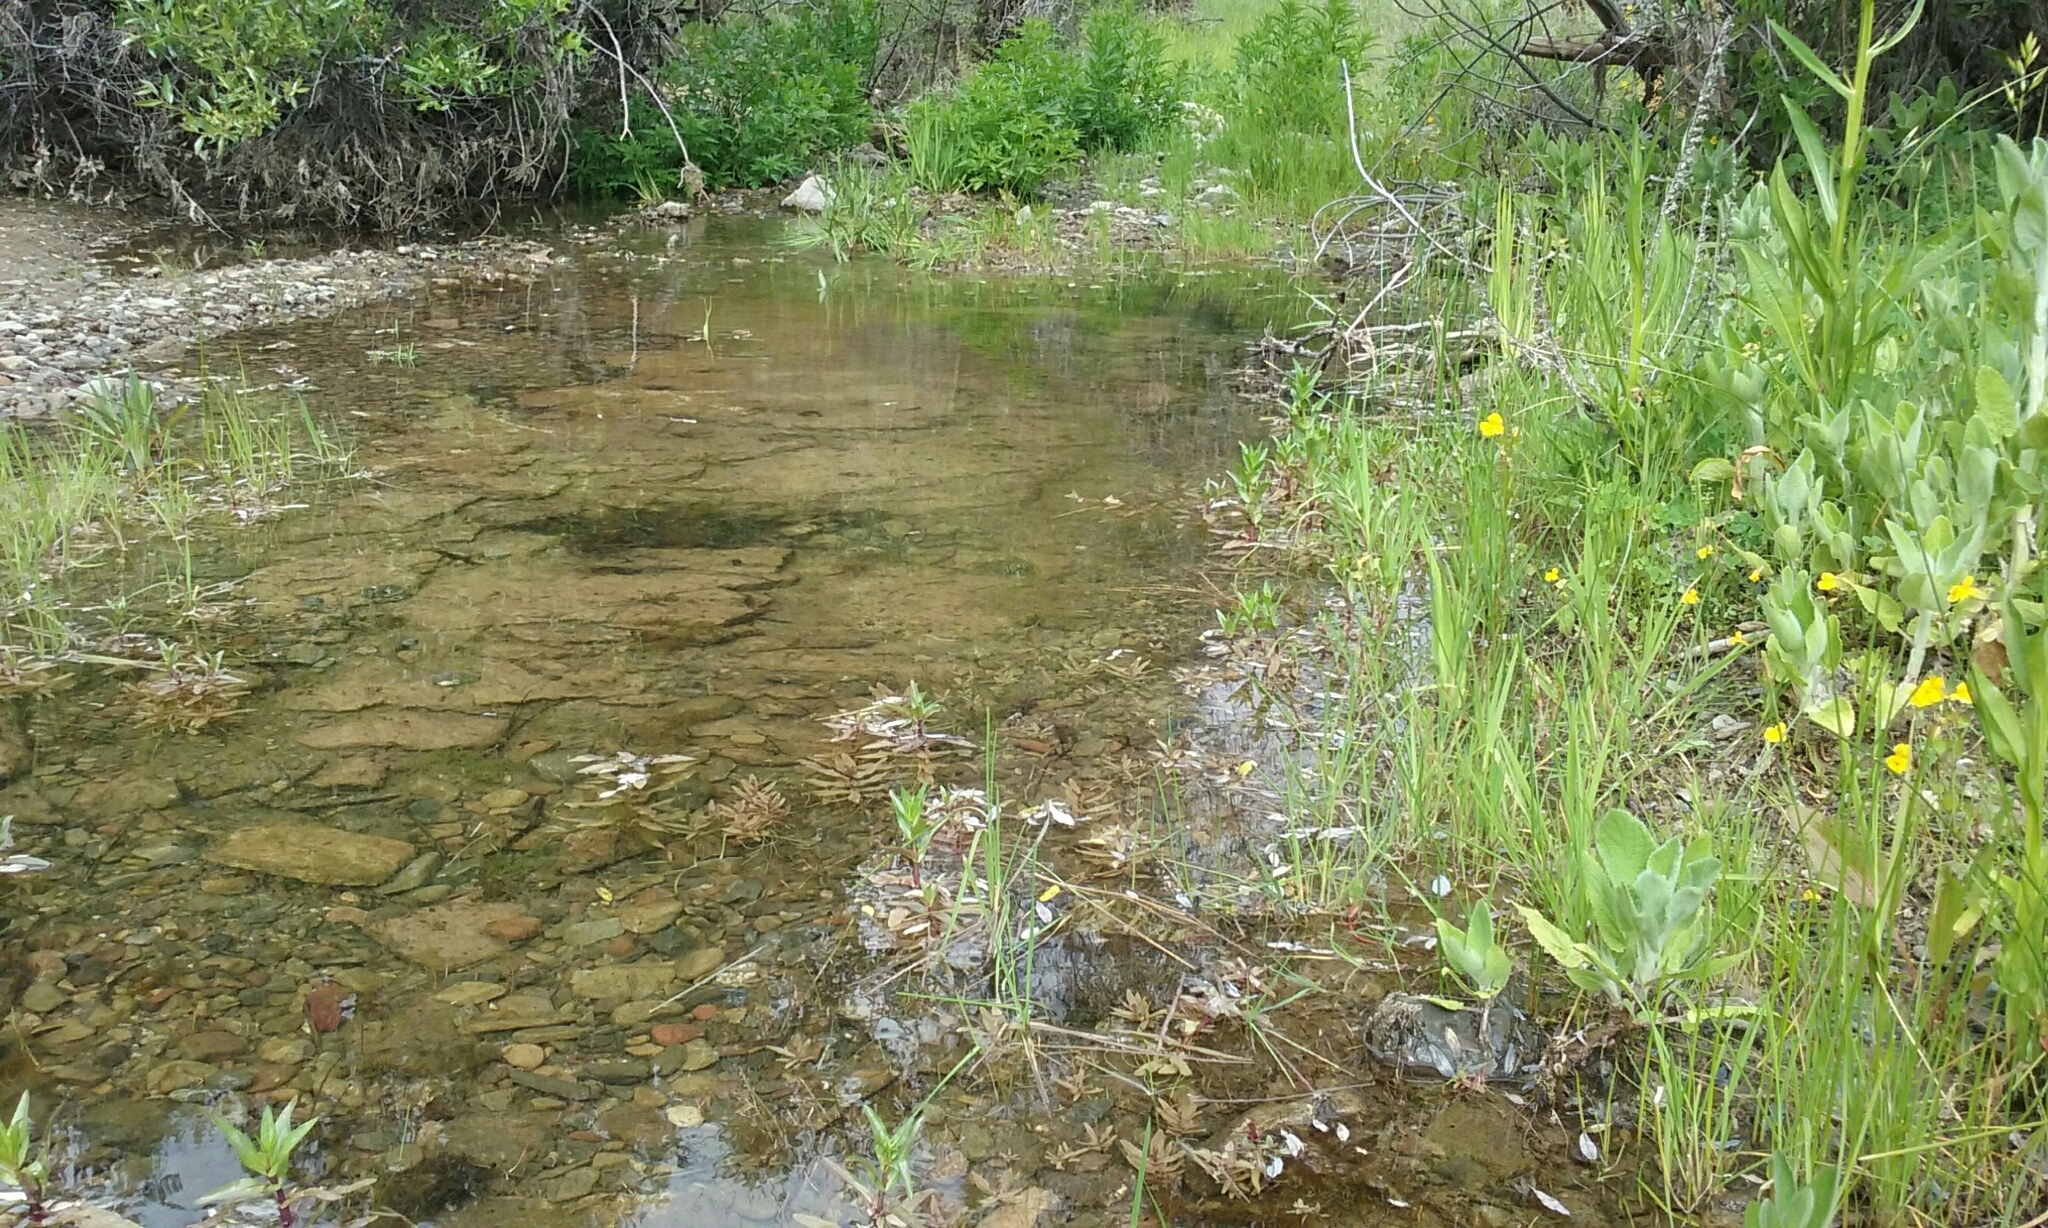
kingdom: Animalia
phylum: Chordata
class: Testudines
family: Emydidae
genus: Actinemys
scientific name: Actinemys marmorata
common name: Western pond turtle
